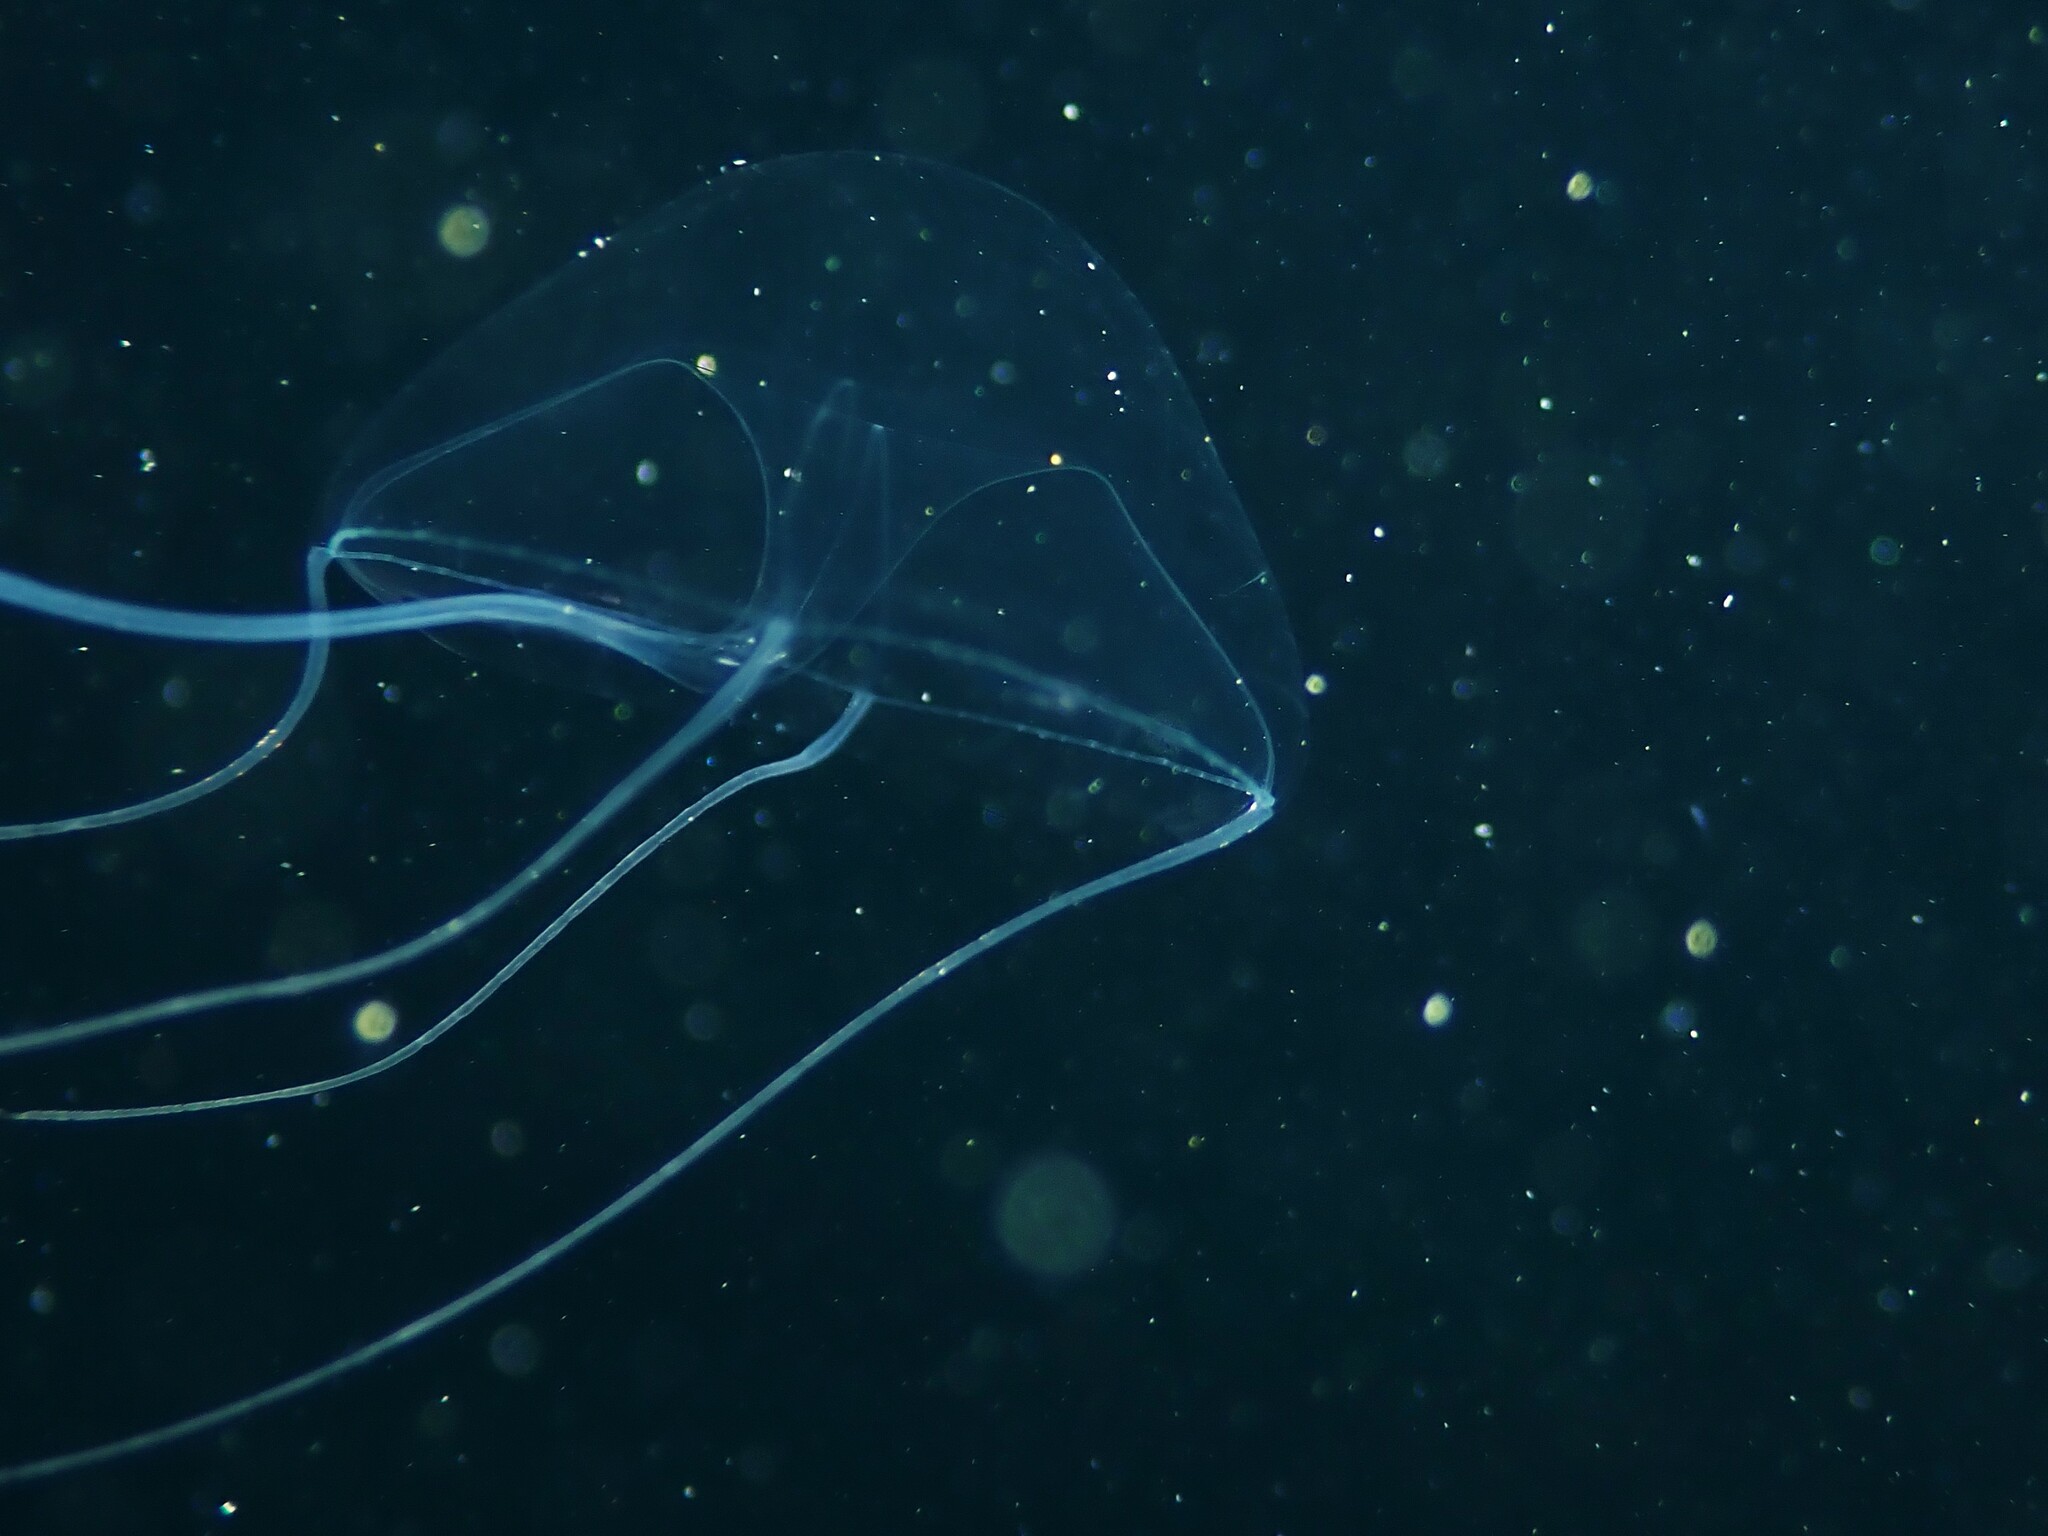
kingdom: Animalia
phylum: Cnidaria
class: Hydrozoa
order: Leptothecata
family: Eirenidae
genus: Eutima
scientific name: Eutima curva
